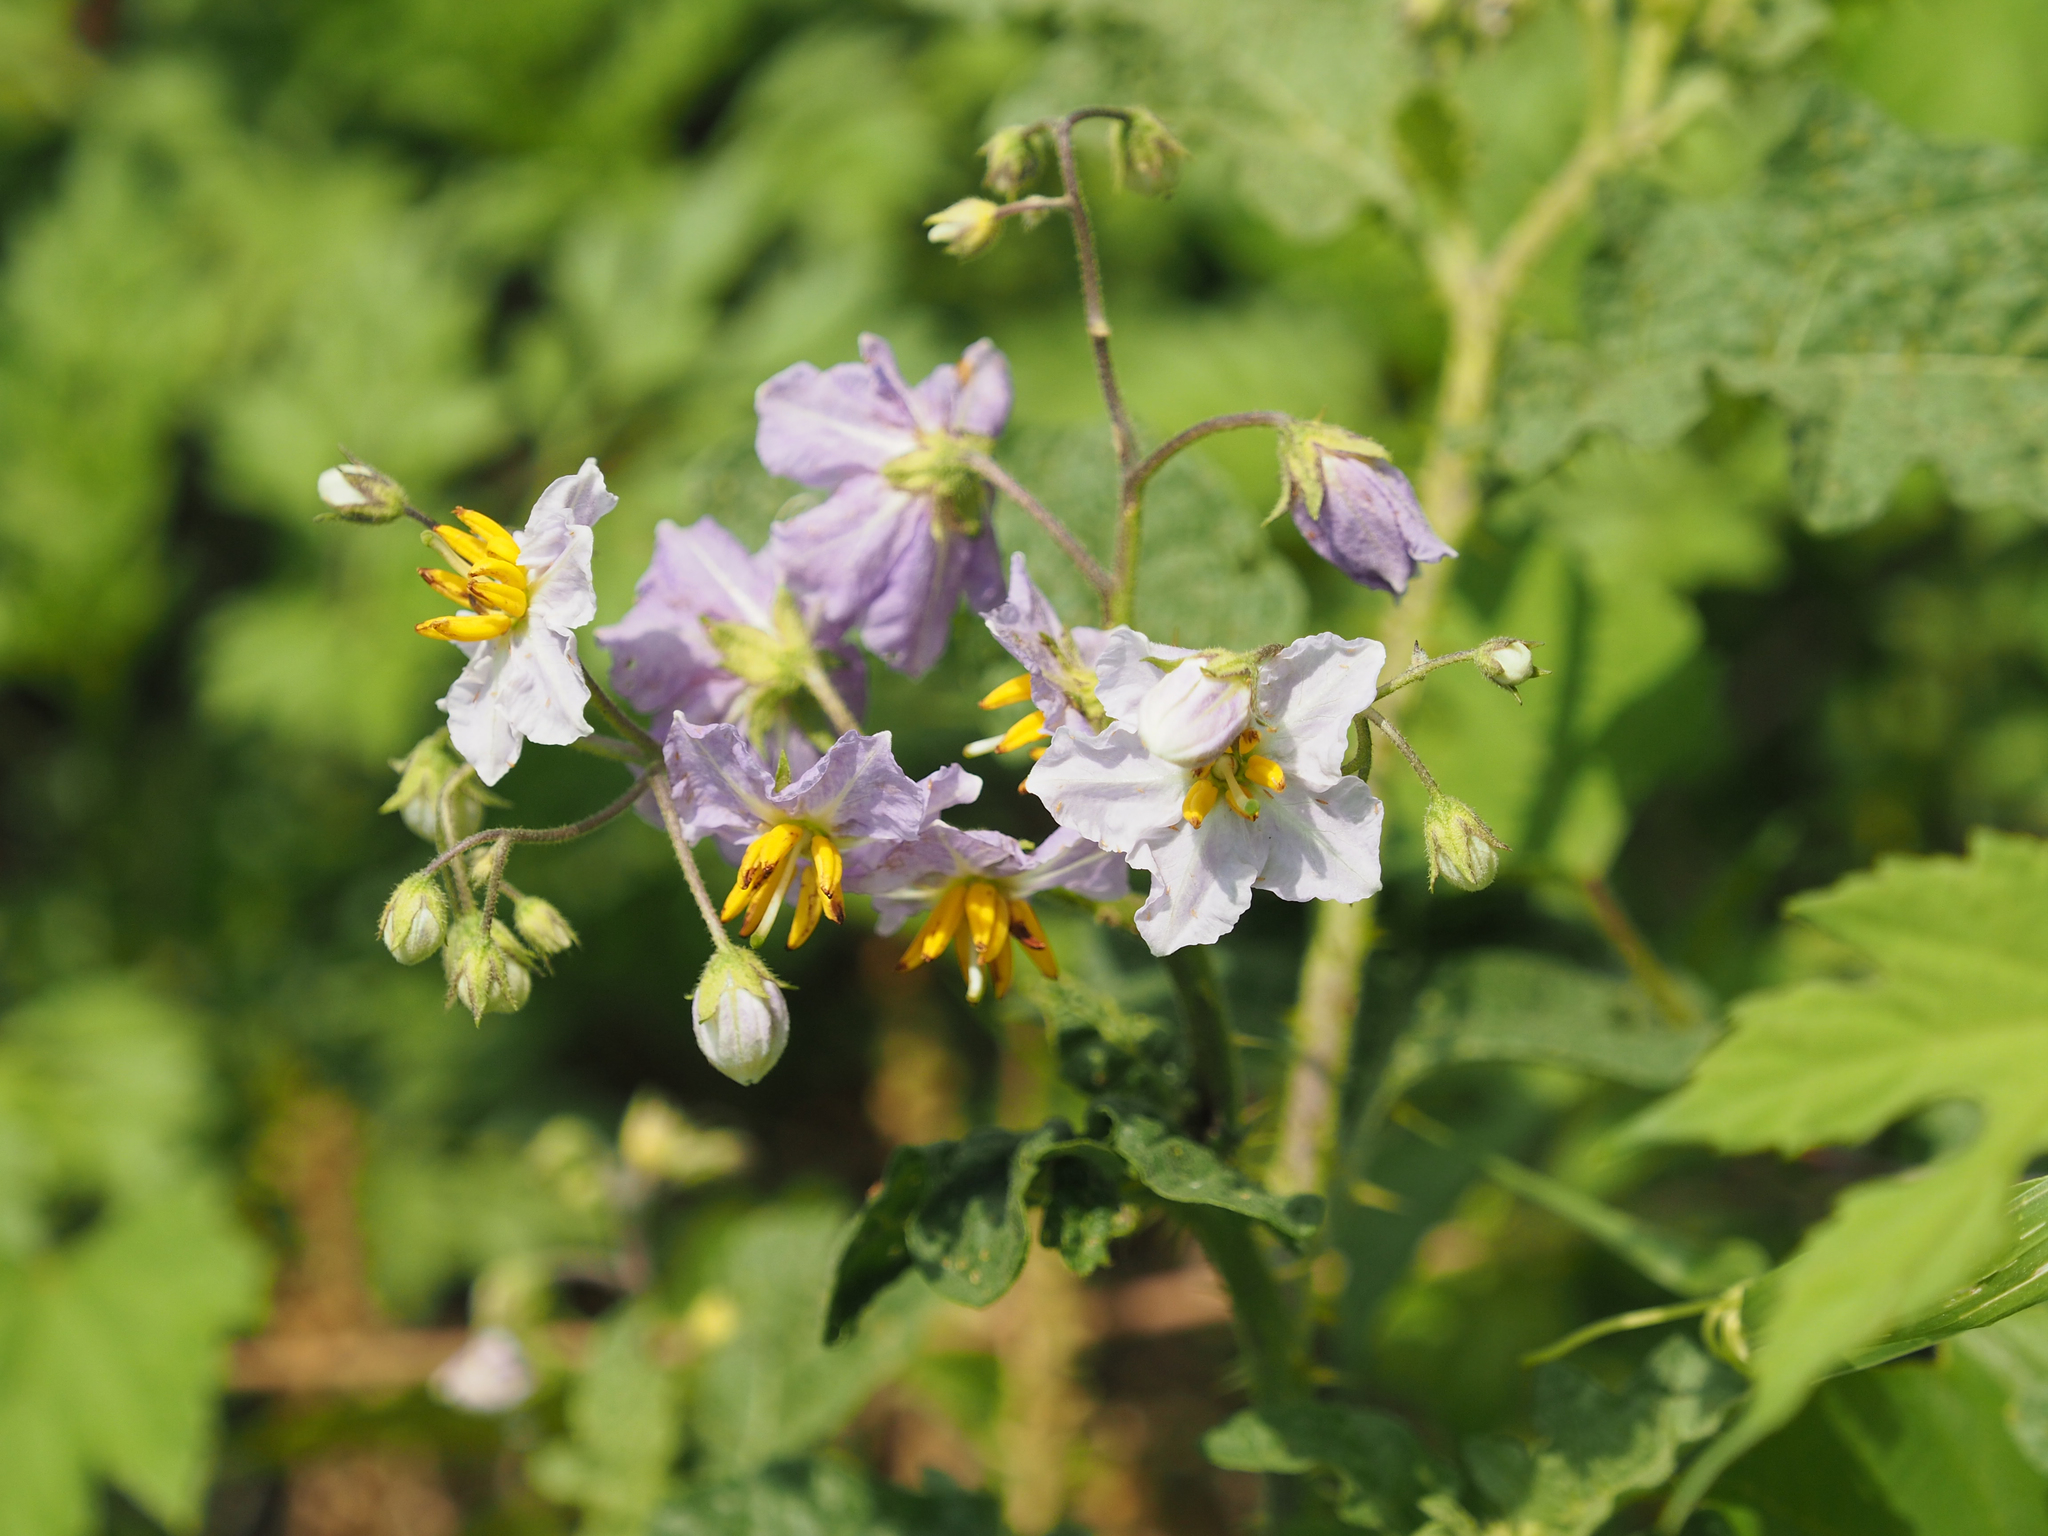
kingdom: Plantae
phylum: Tracheophyta
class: Magnoliopsida
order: Solanales
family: Solanaceae
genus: Solanum
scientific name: Solanum carolinense
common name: Horse-nettle
